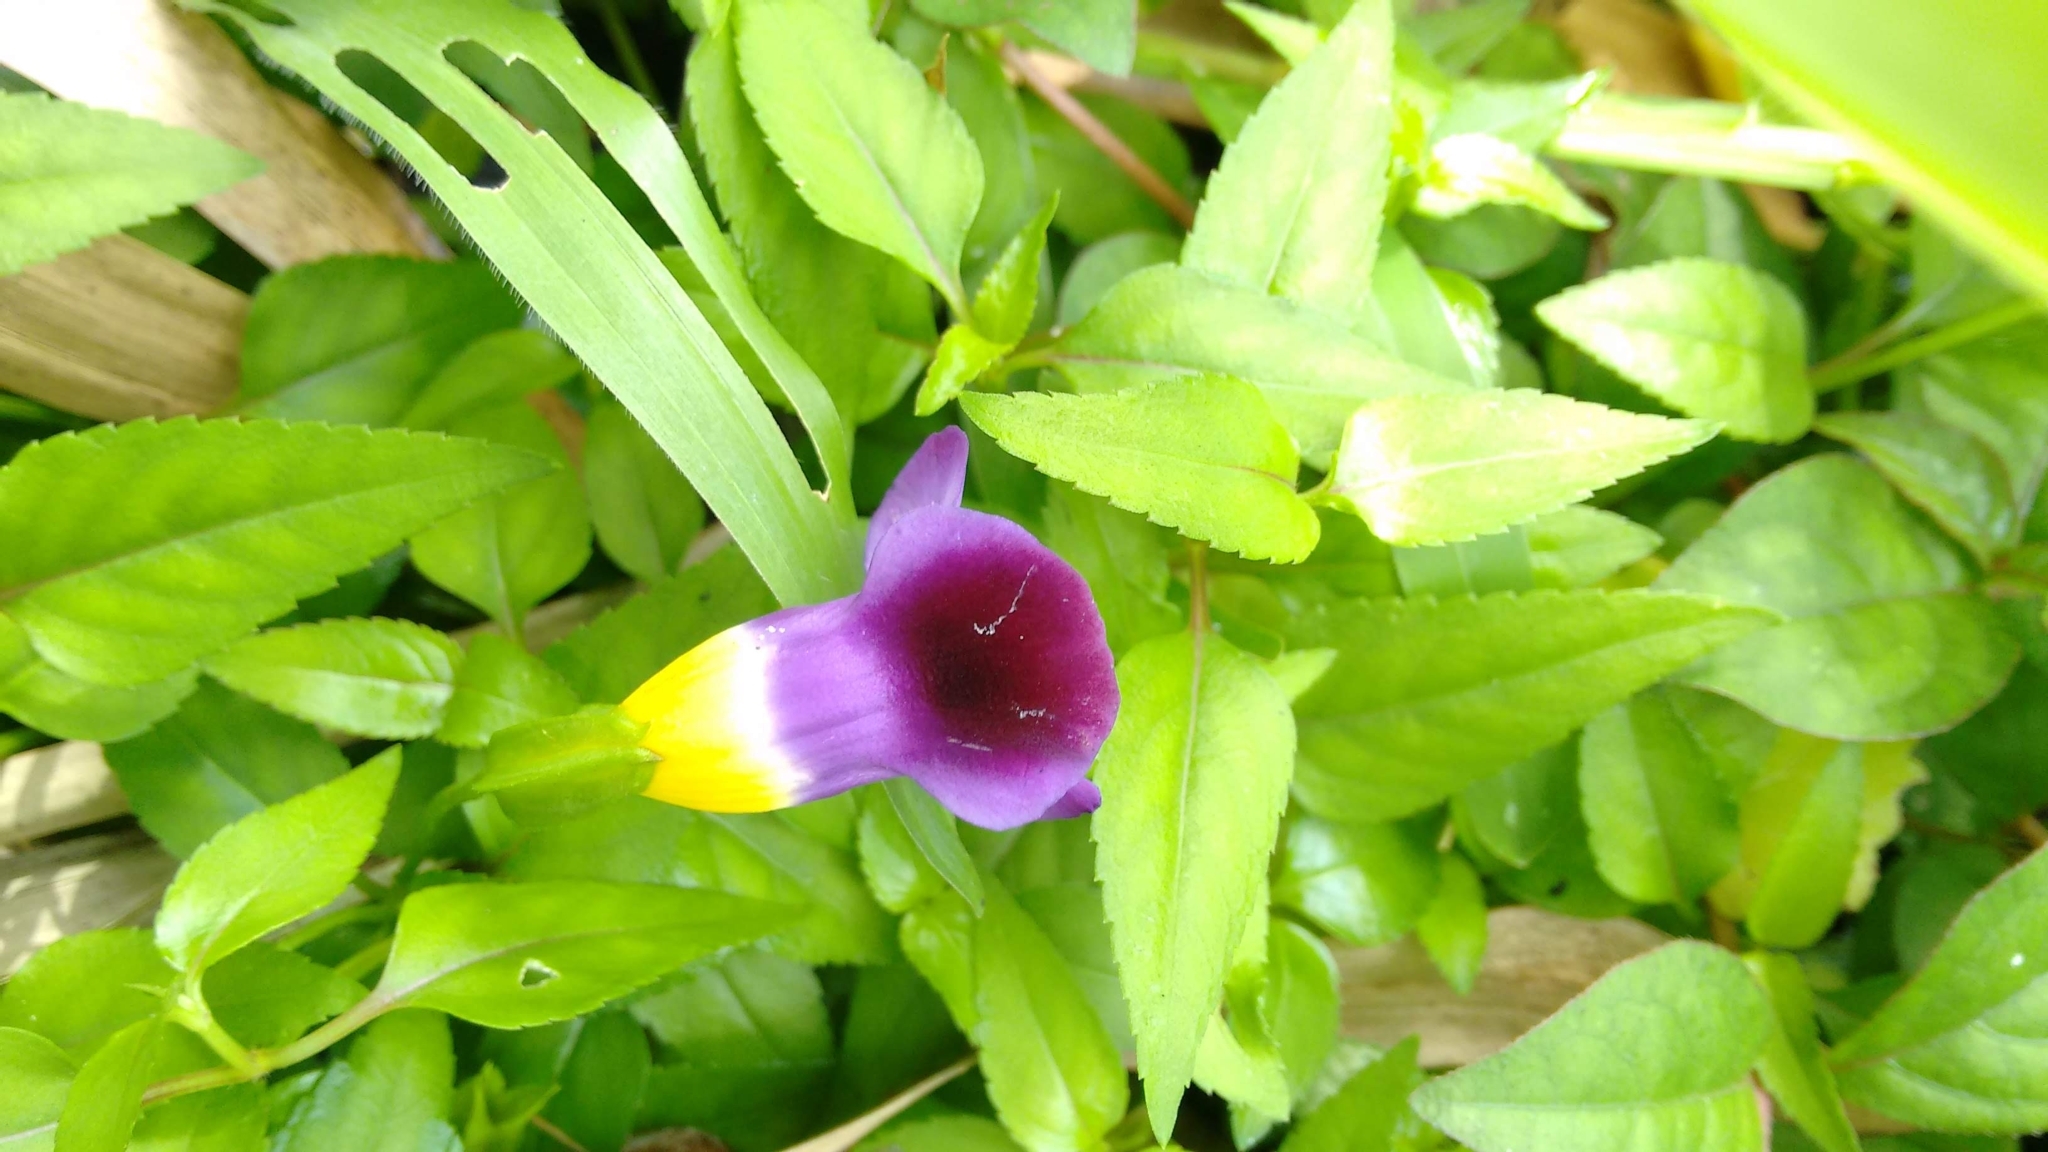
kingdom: Plantae
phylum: Tracheophyta
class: Magnoliopsida
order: Lamiales
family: Linderniaceae
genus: Torenia
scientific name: Torenia leucosiphon
